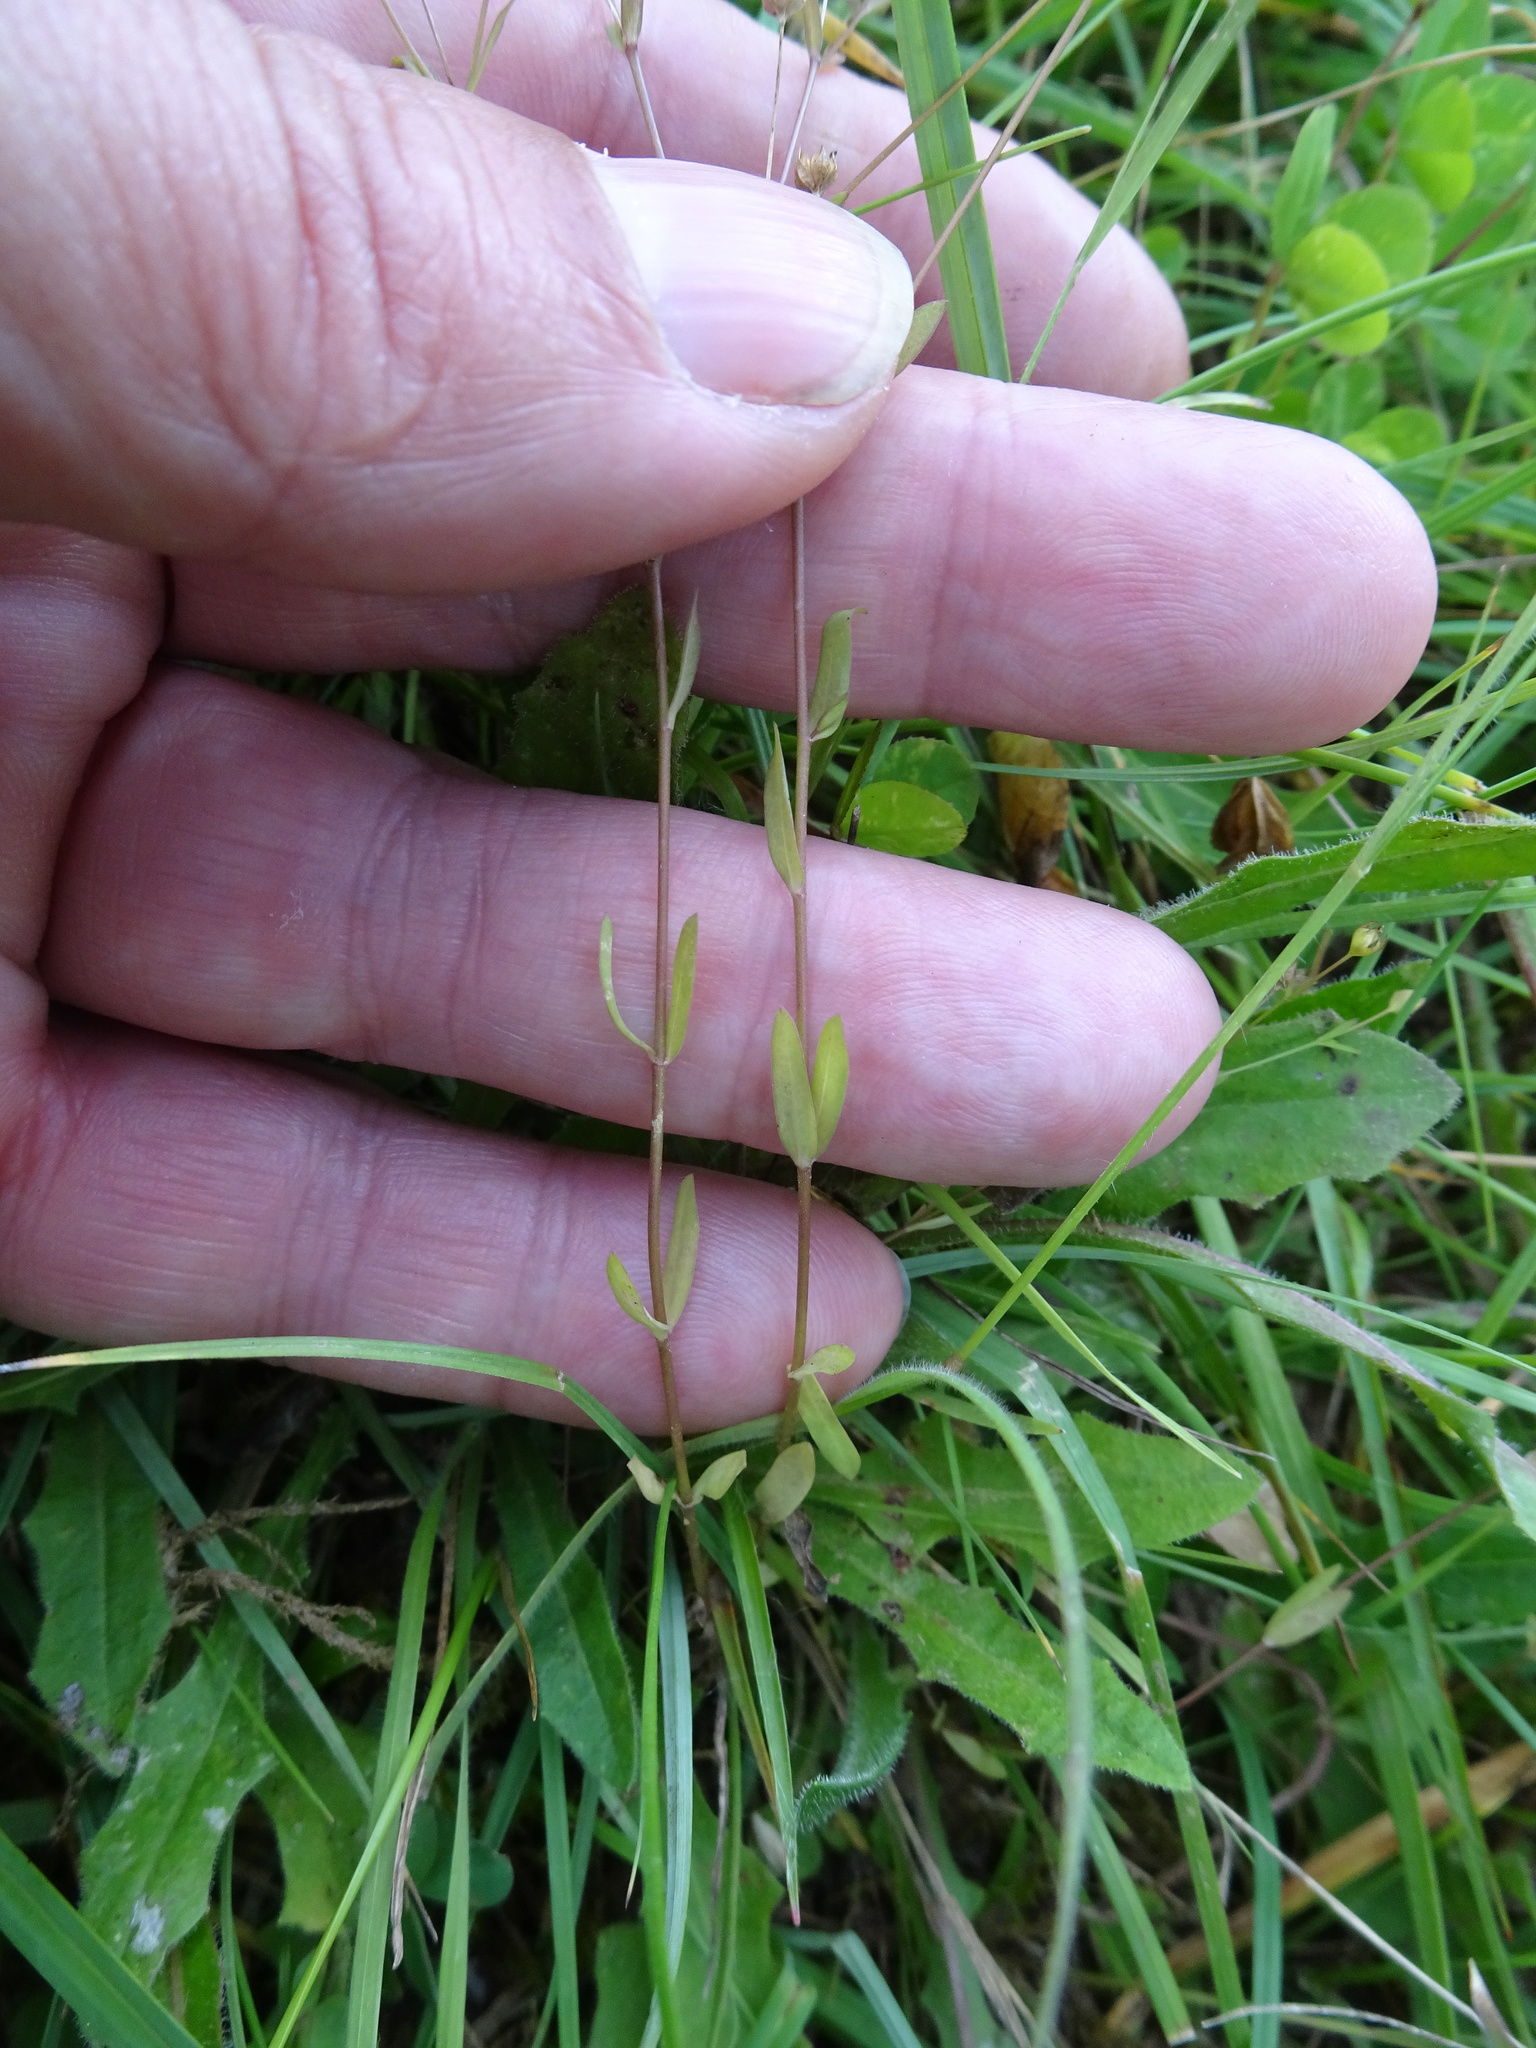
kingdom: Plantae
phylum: Tracheophyta
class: Magnoliopsida
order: Malpighiales
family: Linaceae
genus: Linum
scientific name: Linum catharticum
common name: Fairy flax
